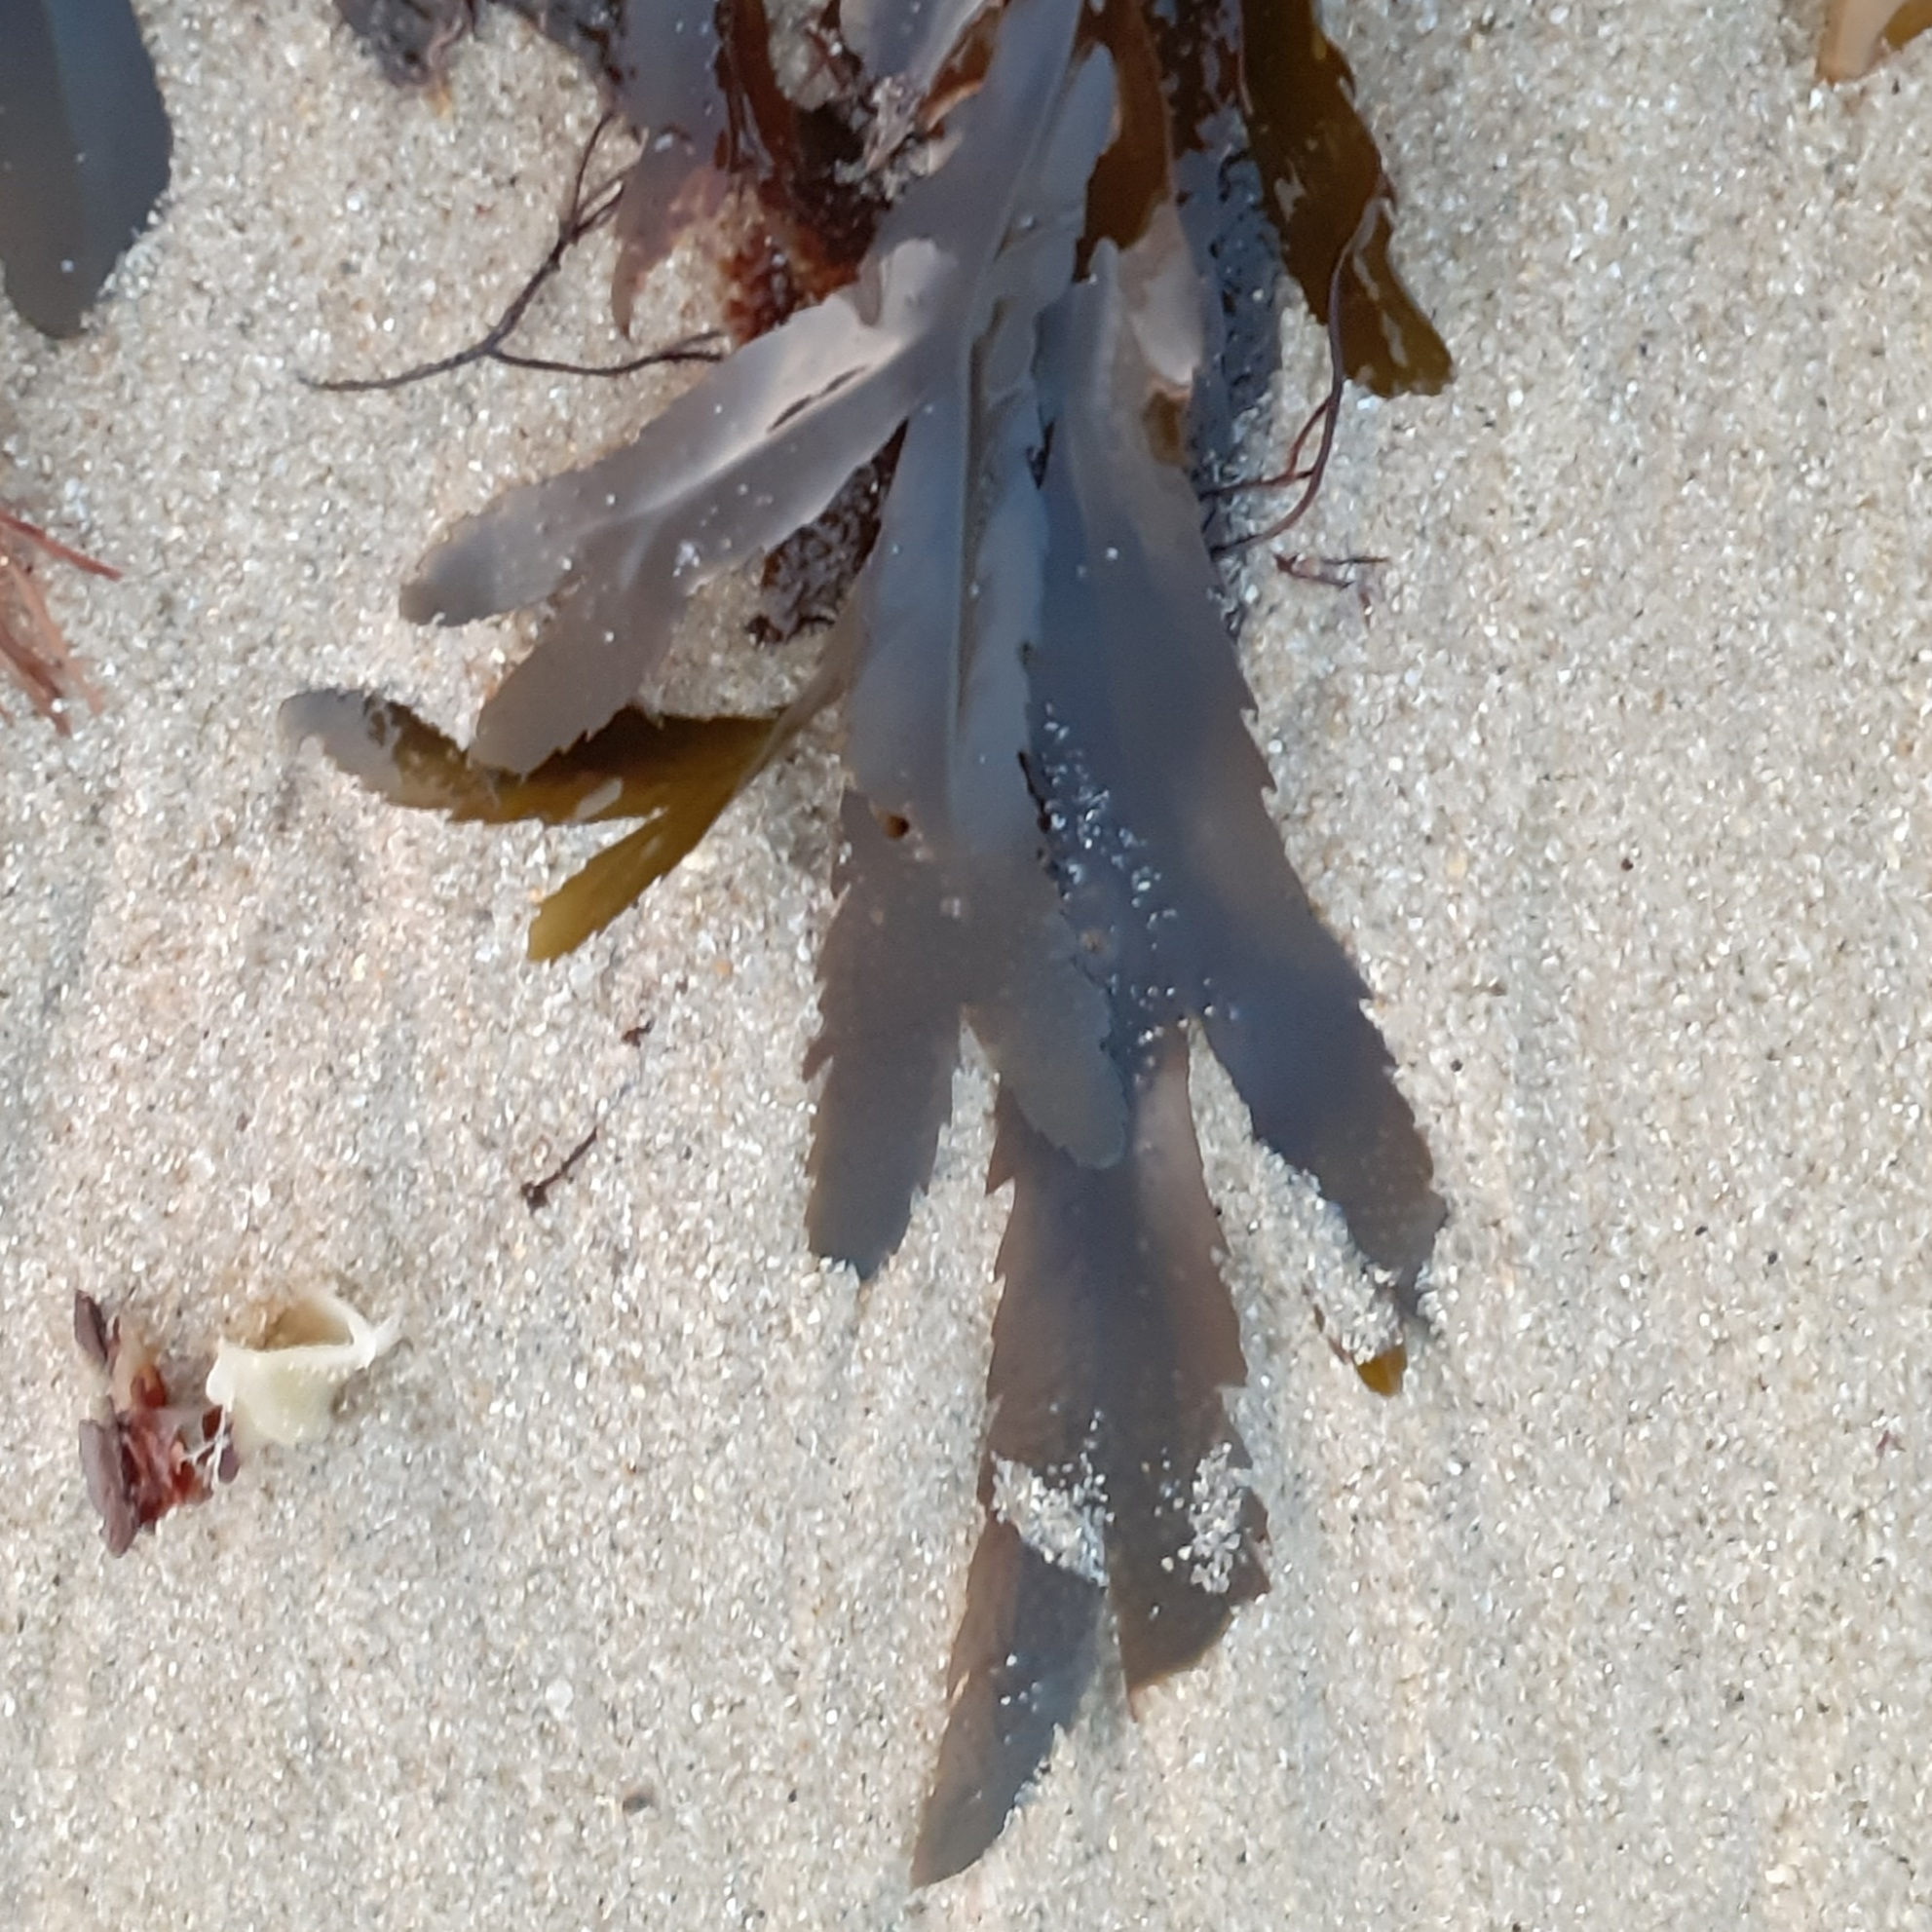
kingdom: Chromista
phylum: Ochrophyta
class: Phaeophyceae
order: Fucales
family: Fucaceae
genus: Fucus
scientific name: Fucus serratus
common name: Toothed wrack
